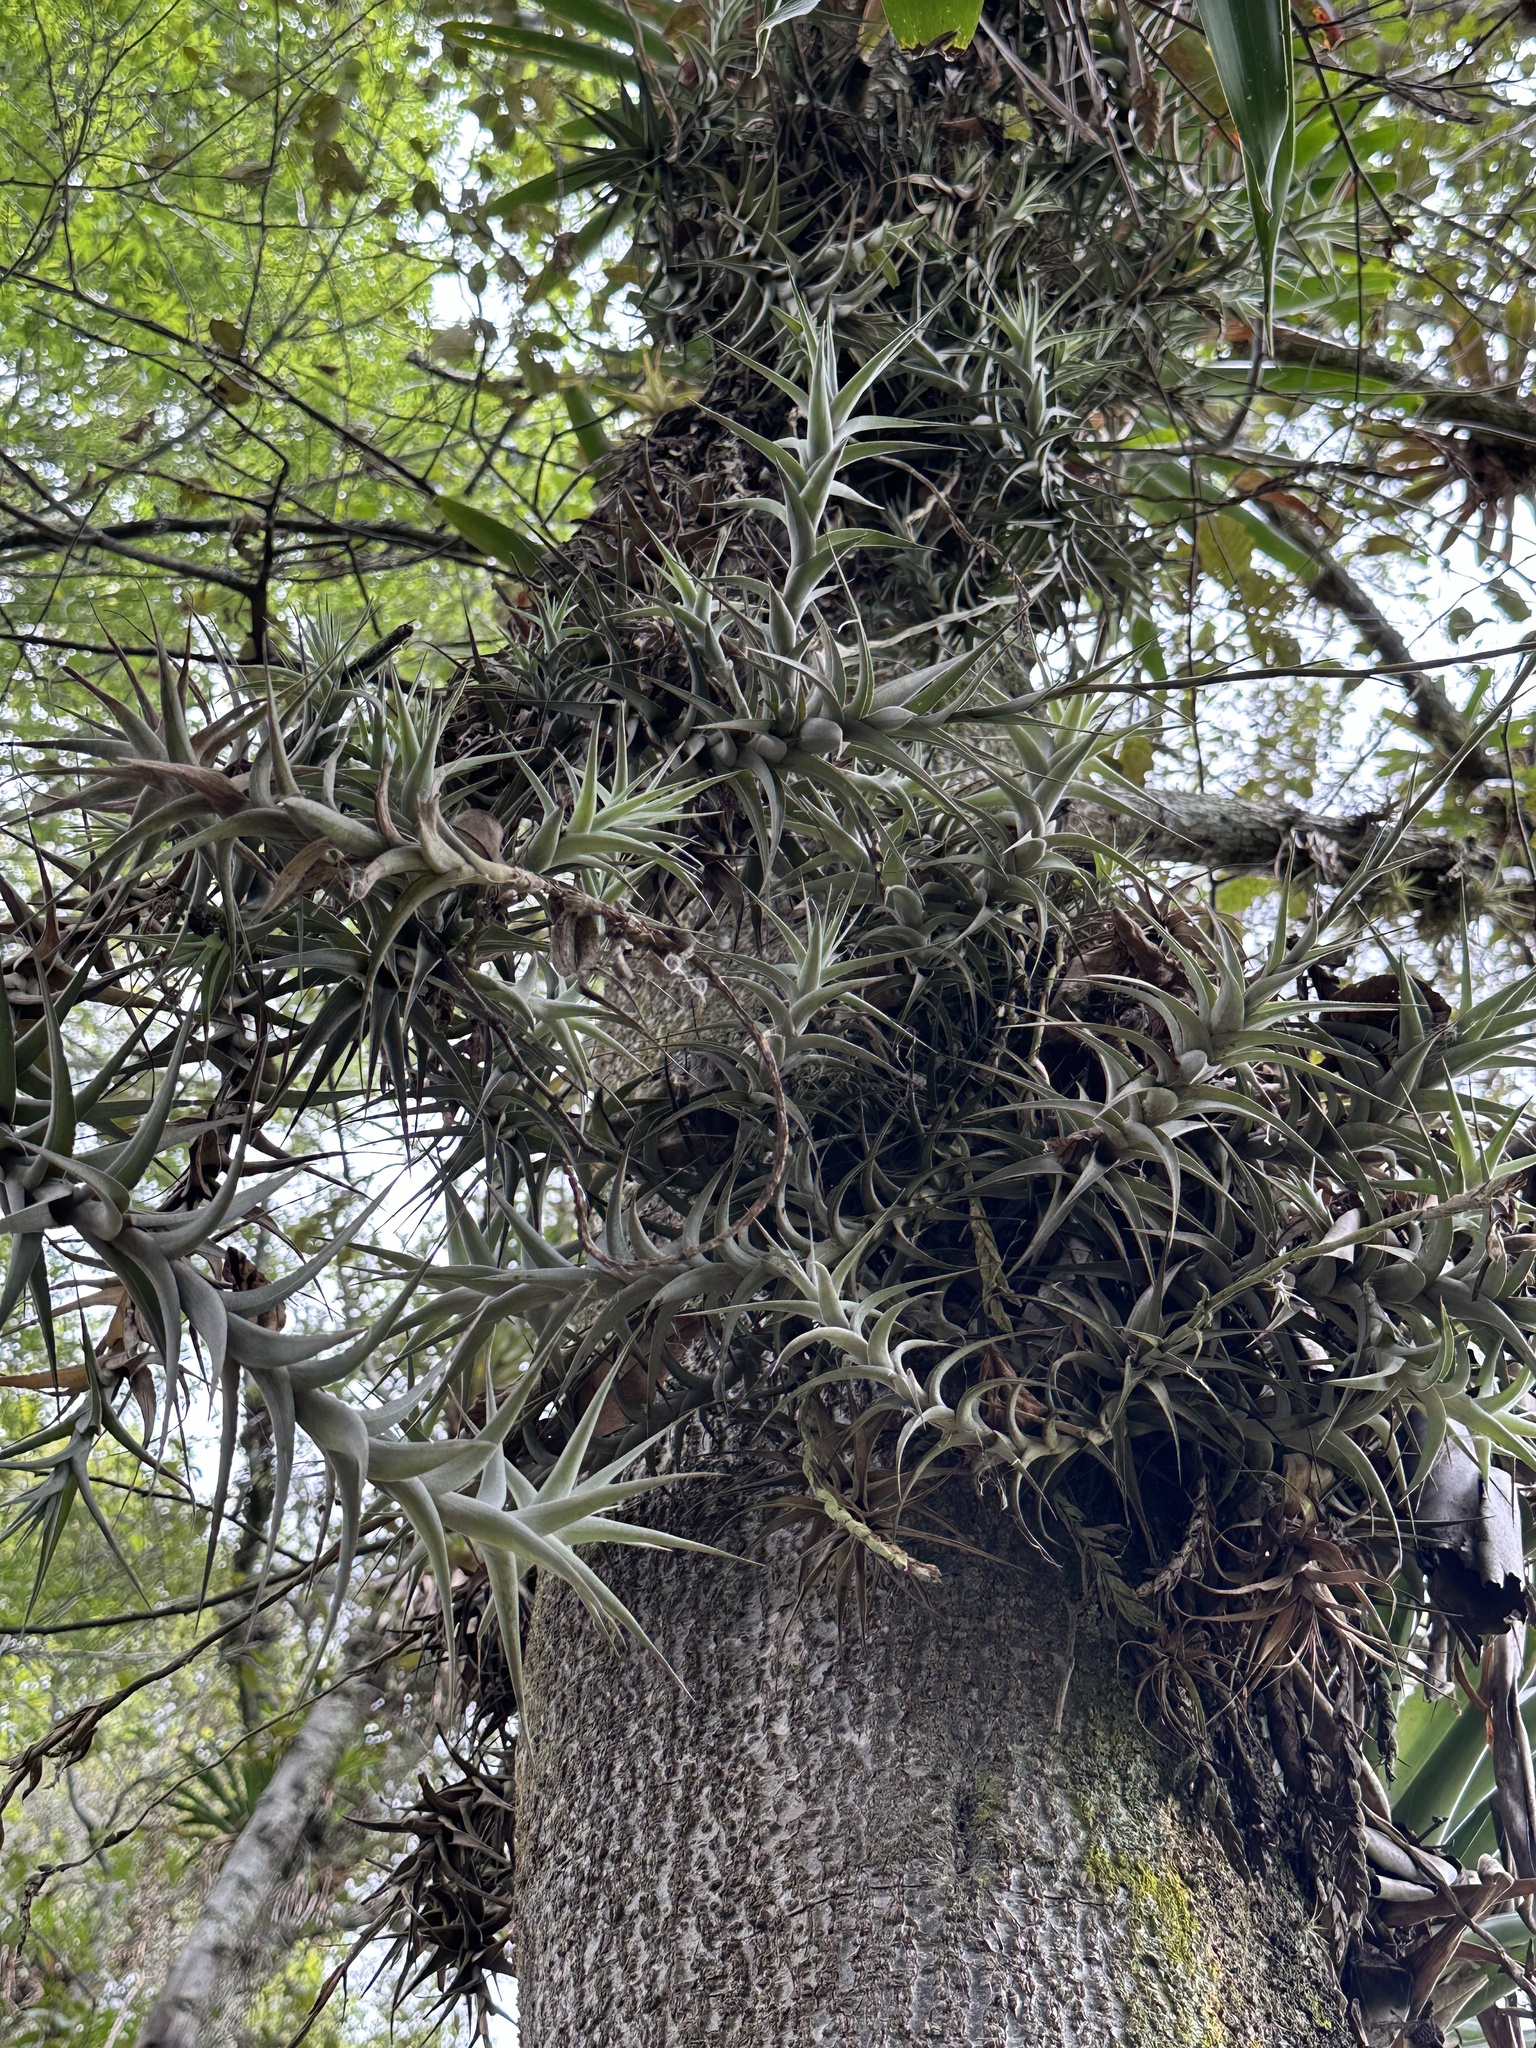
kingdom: Plantae
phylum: Tracheophyta
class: Liliopsida
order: Poales
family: Bromeliaceae
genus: Tillandsia
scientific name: Tillandsia incarnata
